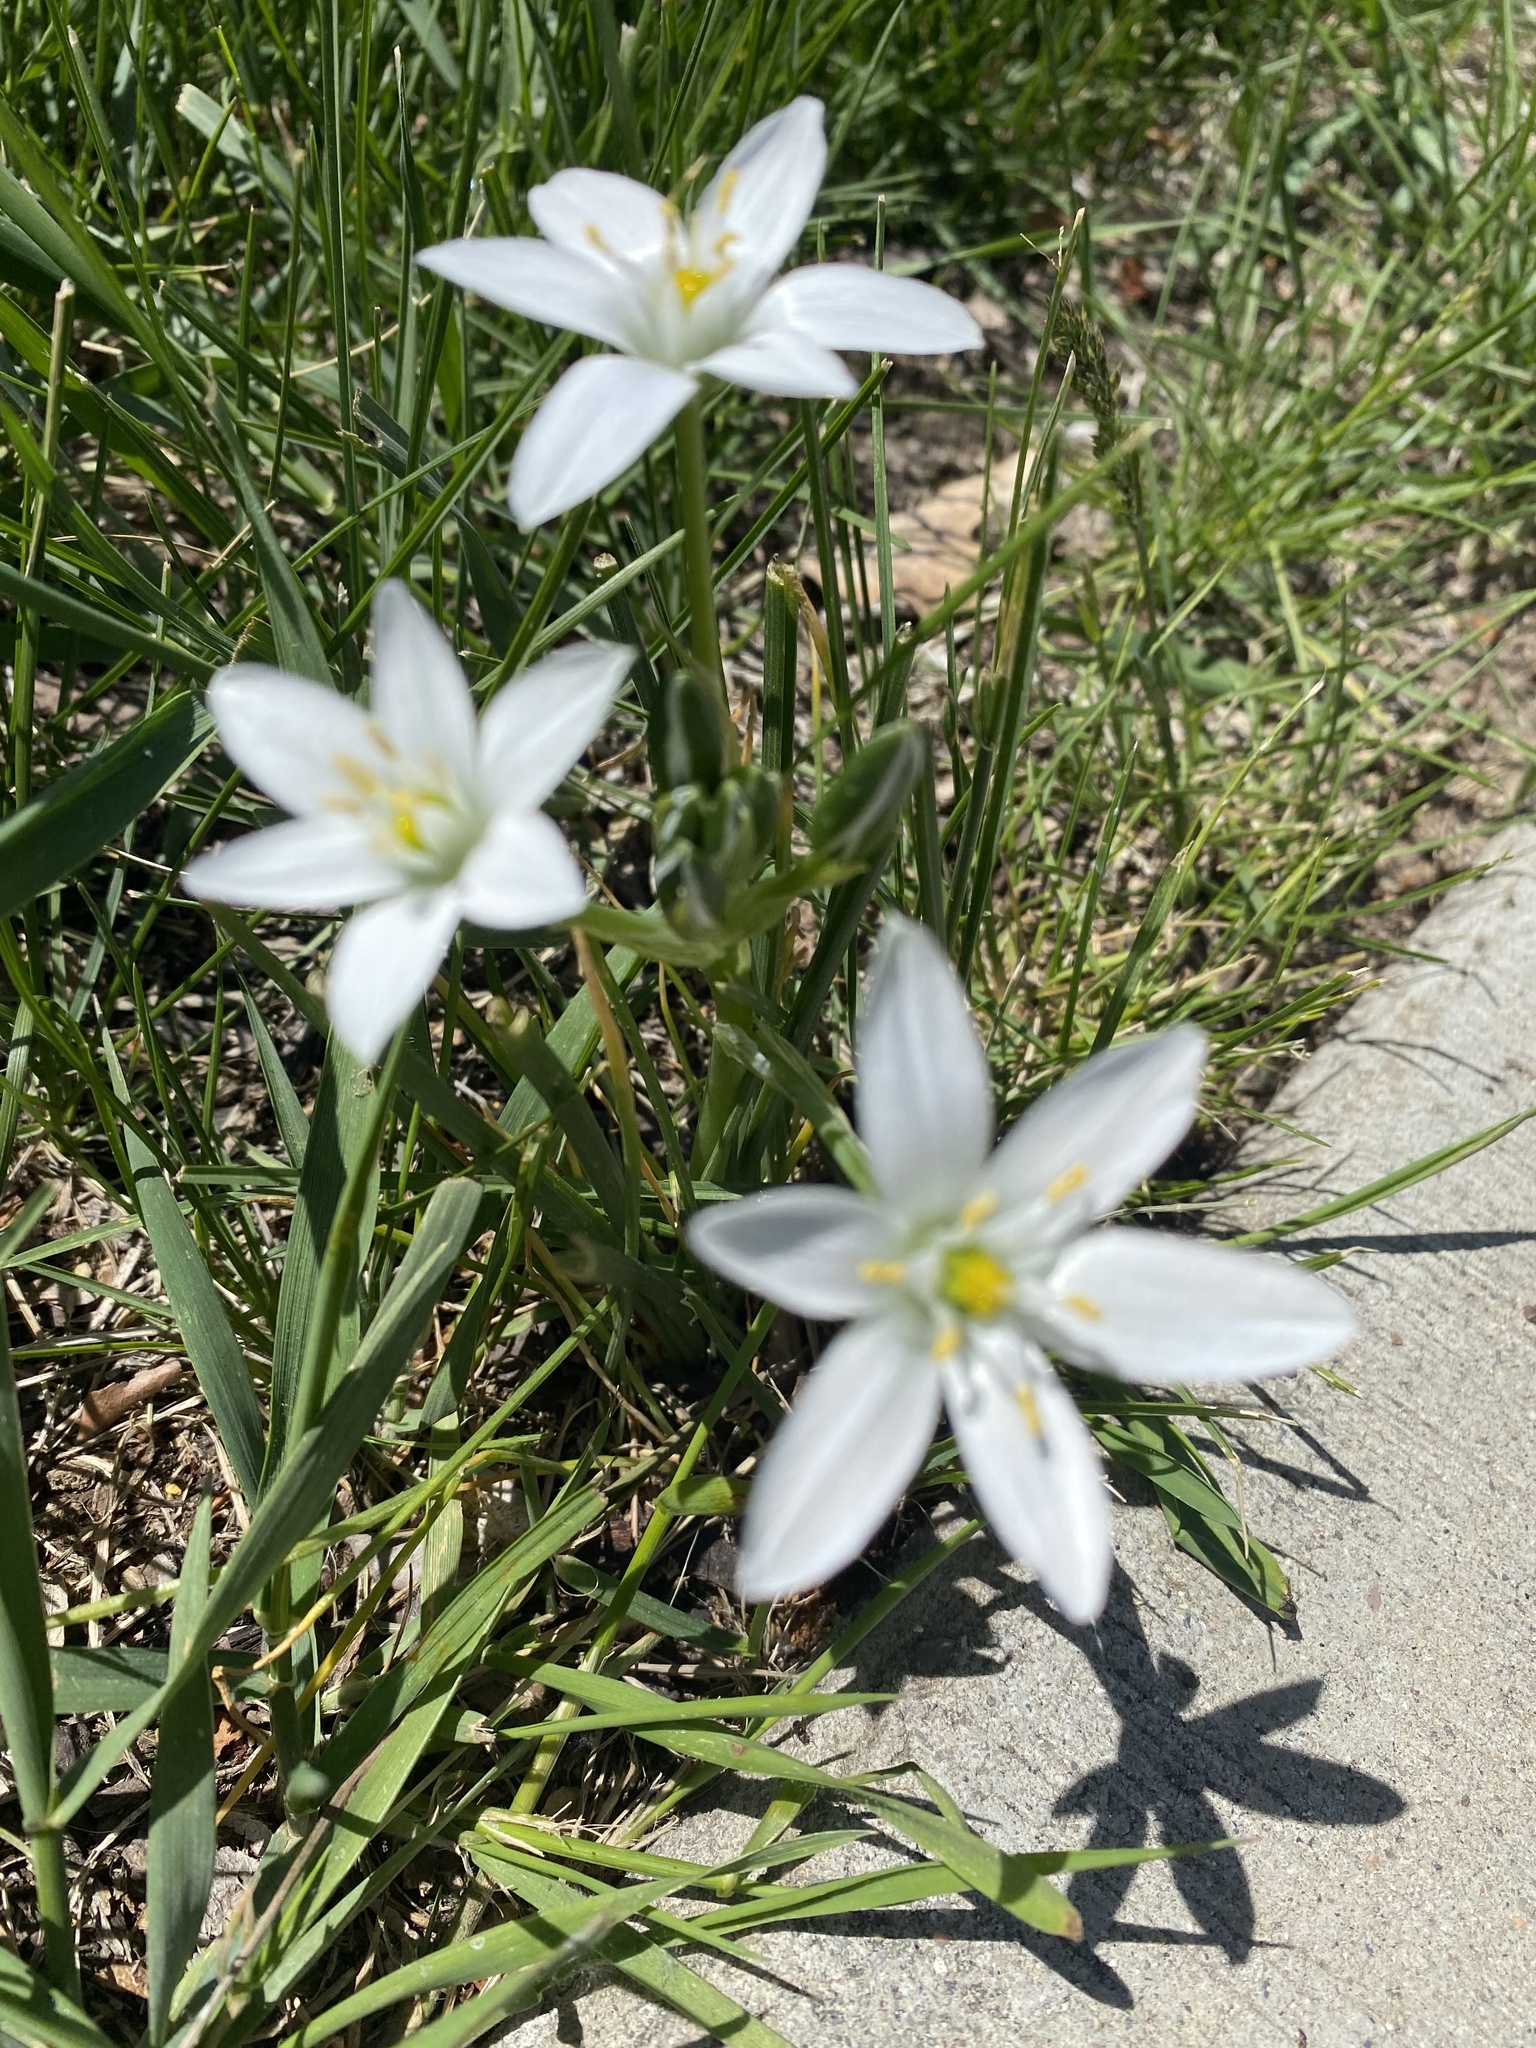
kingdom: Plantae
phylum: Tracheophyta
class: Liliopsida
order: Asparagales
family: Asparagaceae
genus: Ornithogalum
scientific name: Ornithogalum umbellatum
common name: Garden star-of-bethlehem
